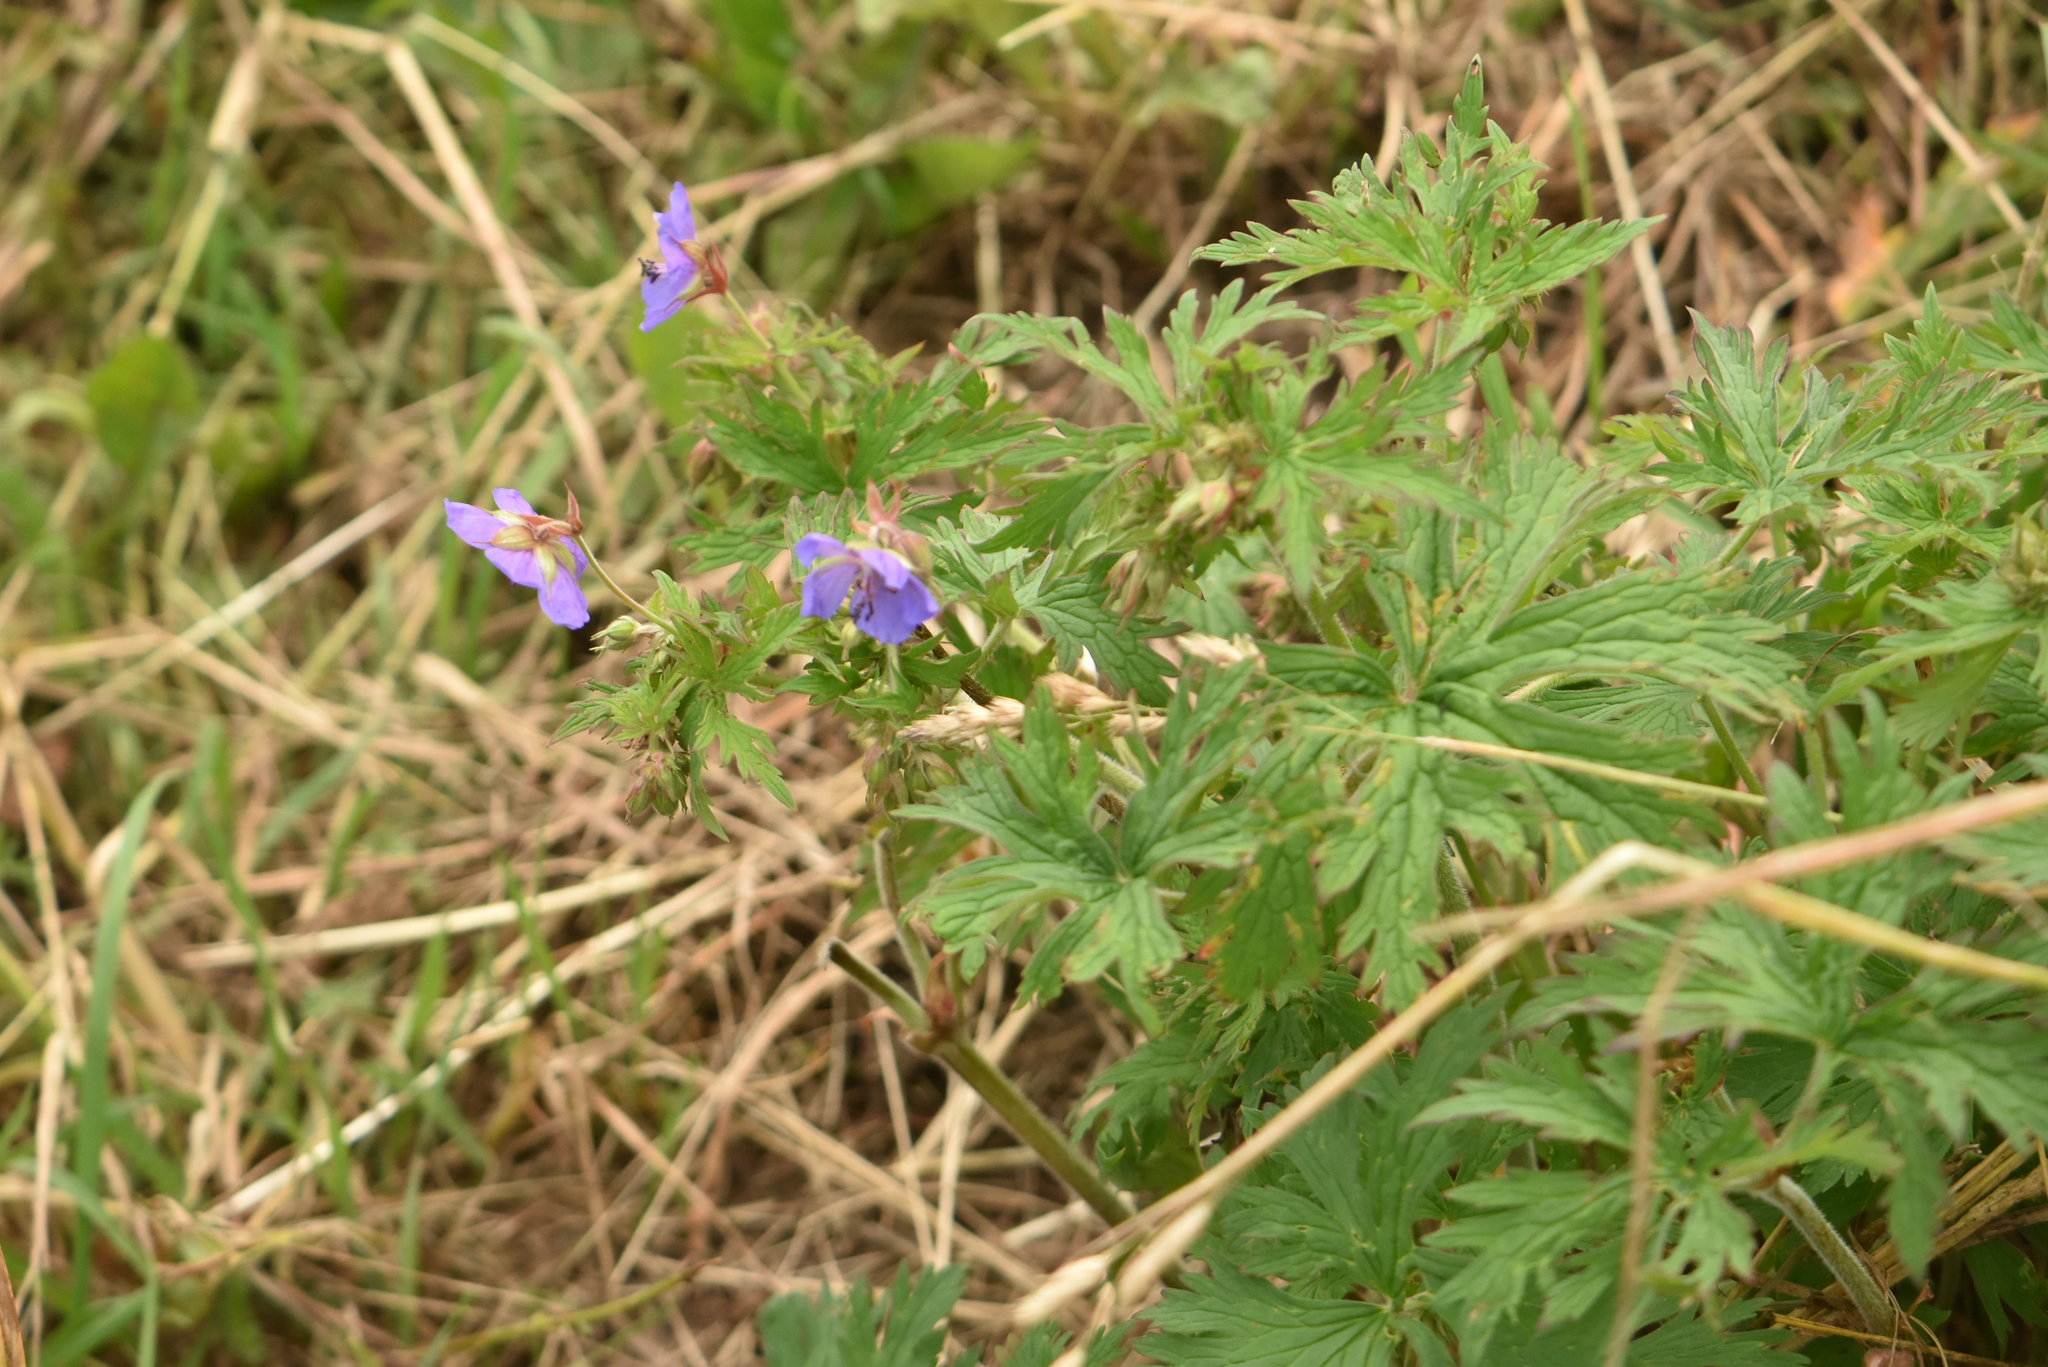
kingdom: Plantae
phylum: Tracheophyta
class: Magnoliopsida
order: Geraniales
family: Geraniaceae
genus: Geranium
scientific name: Geranium pratense
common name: Meadow crane's-bill
